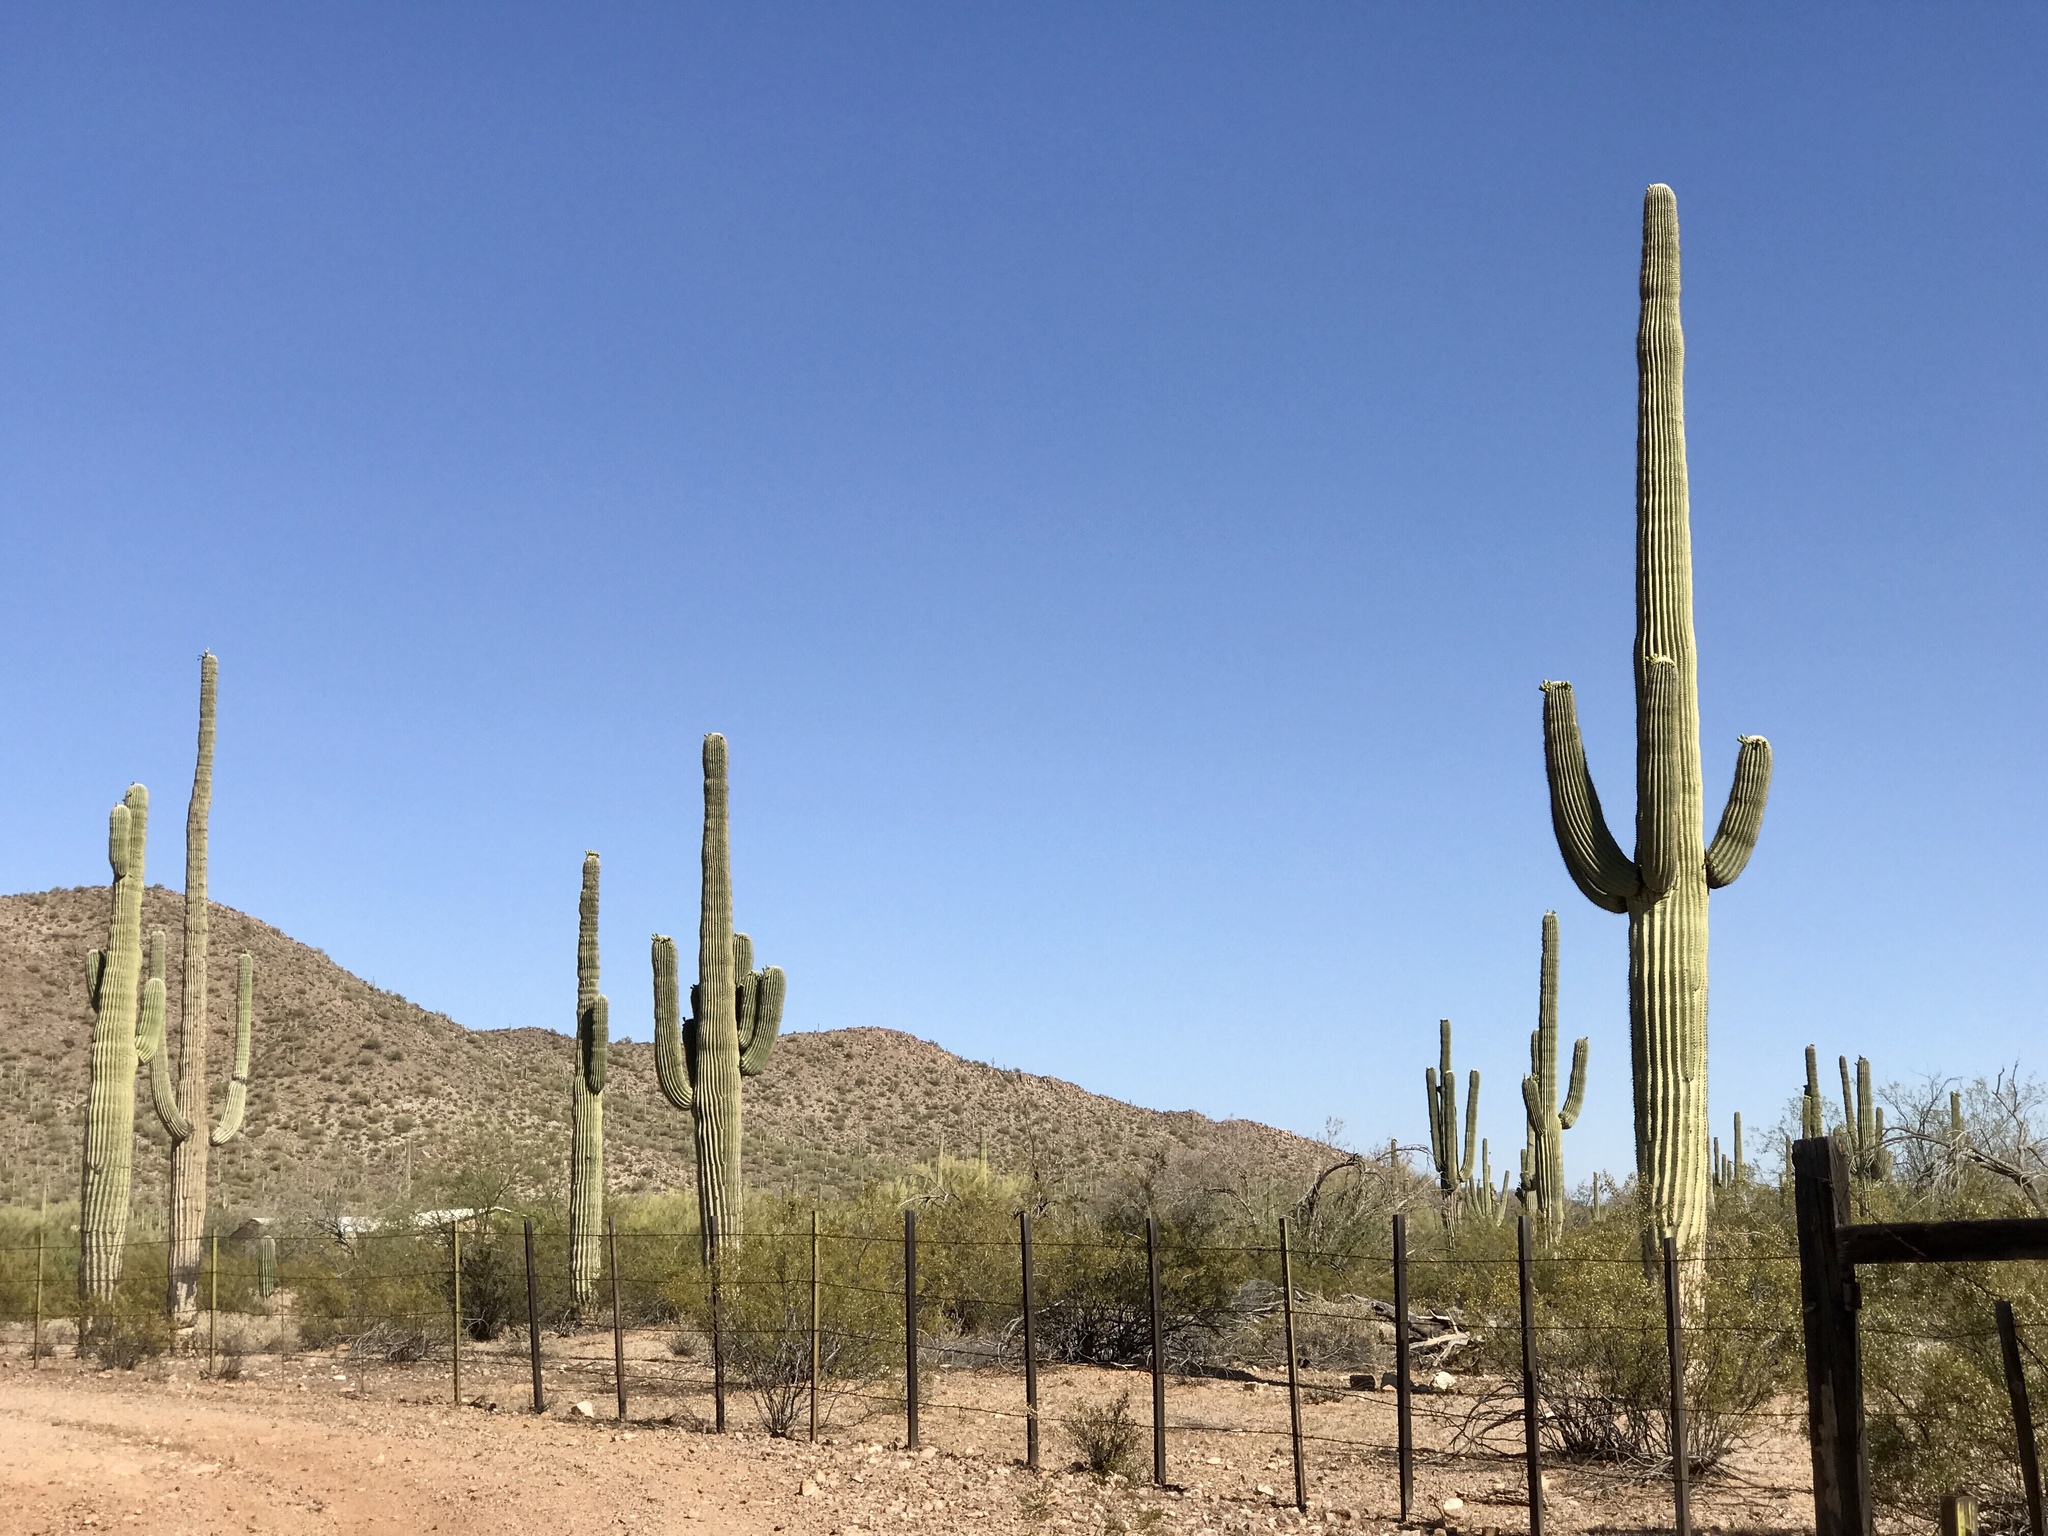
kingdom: Plantae
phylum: Tracheophyta
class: Magnoliopsida
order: Caryophyllales
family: Cactaceae
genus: Carnegiea
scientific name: Carnegiea gigantea
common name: Saguaro
